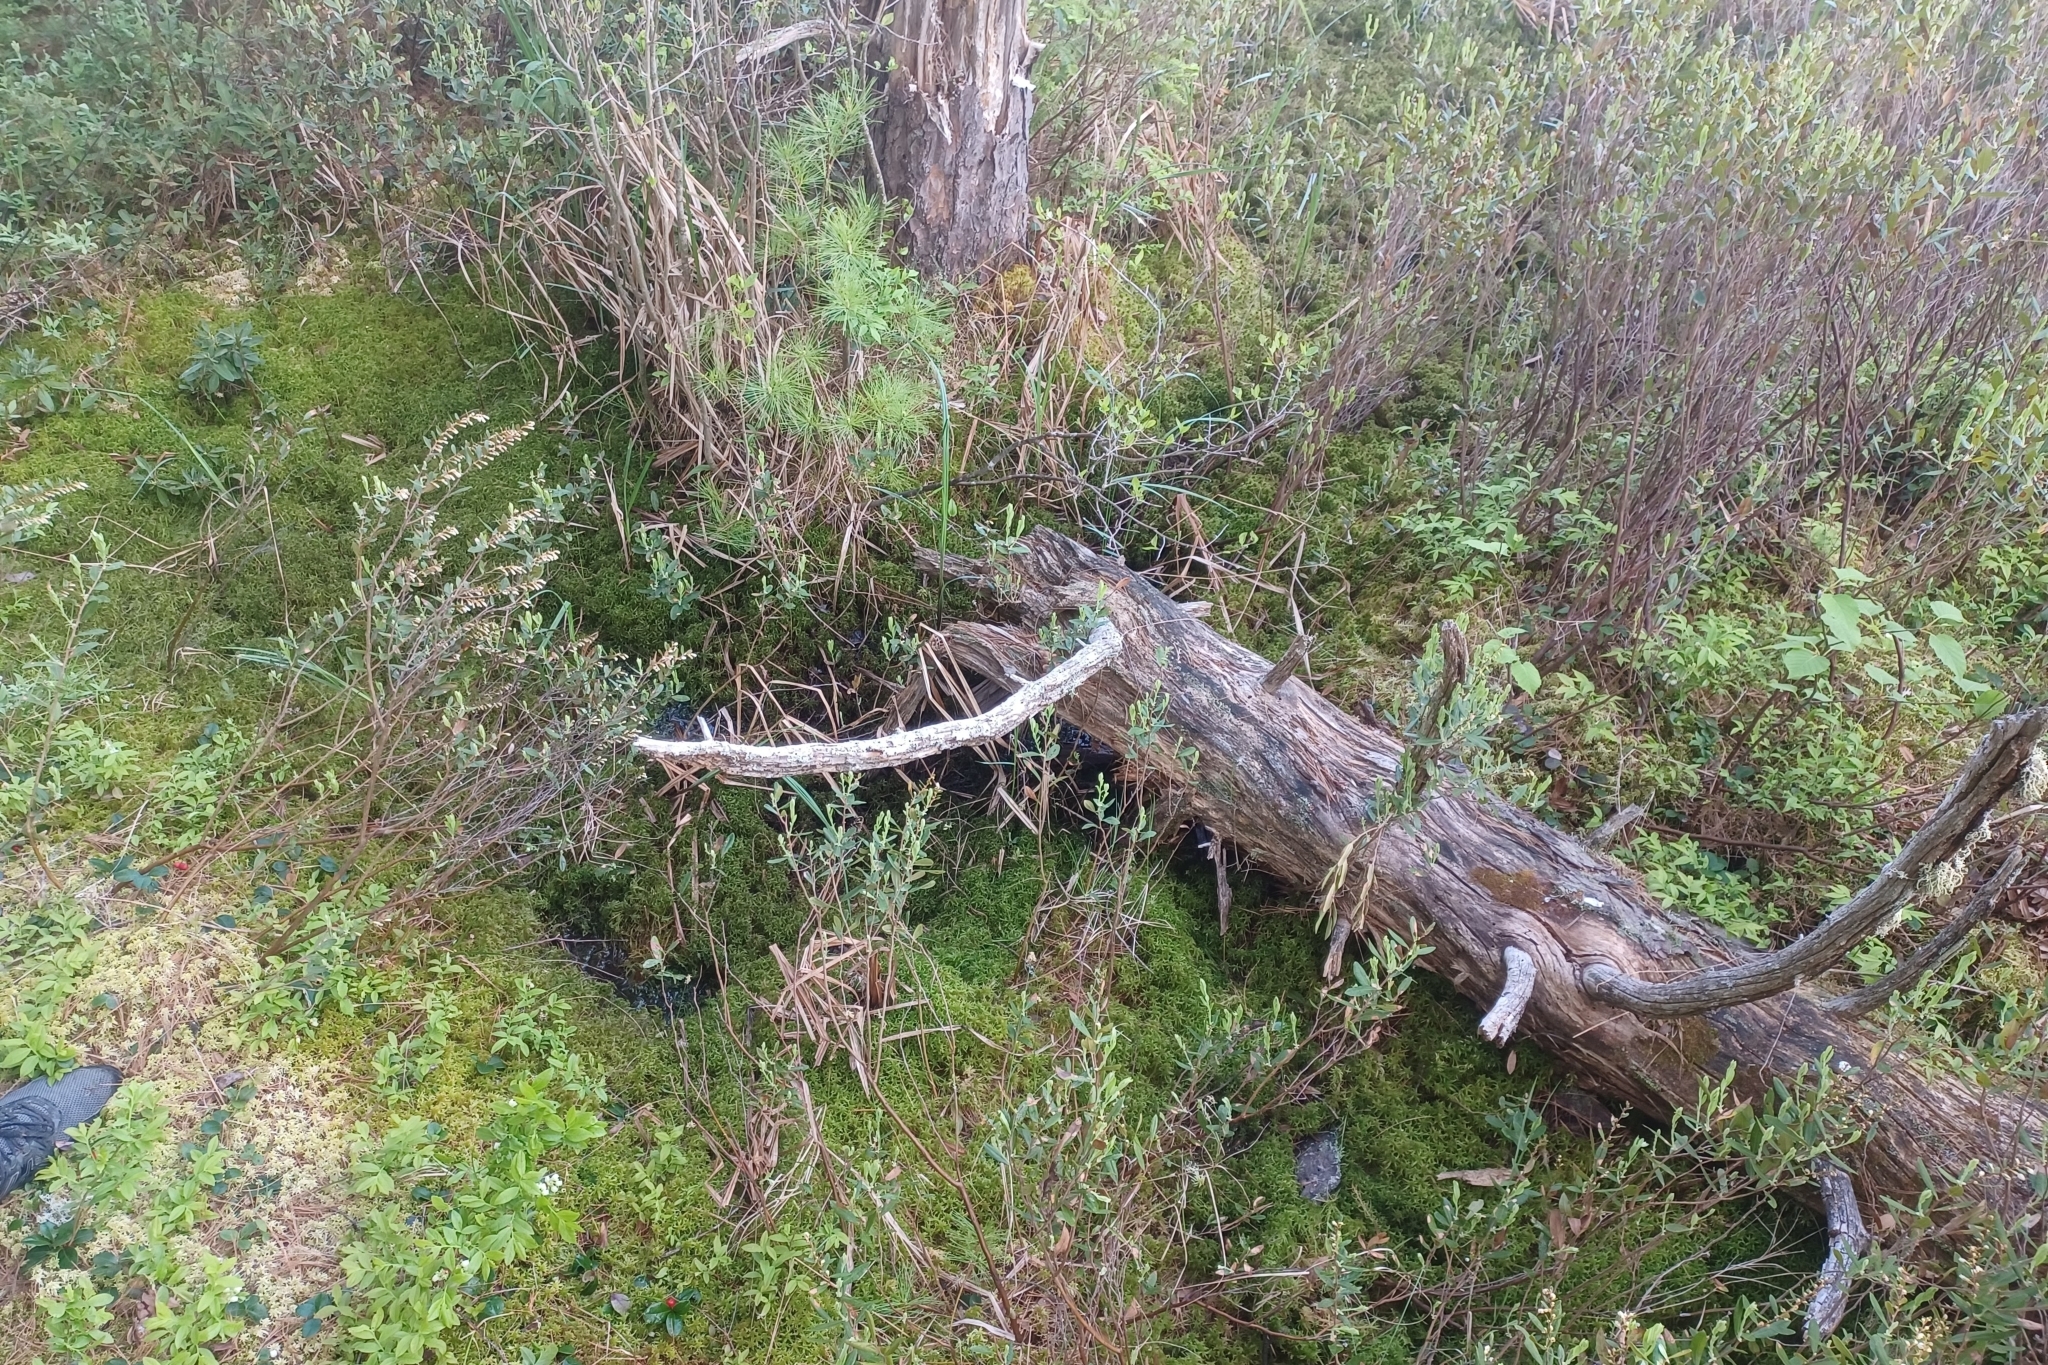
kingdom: Plantae
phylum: Tracheophyta
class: Liliopsida
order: Poales
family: Cyperaceae
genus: Carex
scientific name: Carex chordorrhiza
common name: String sedge
